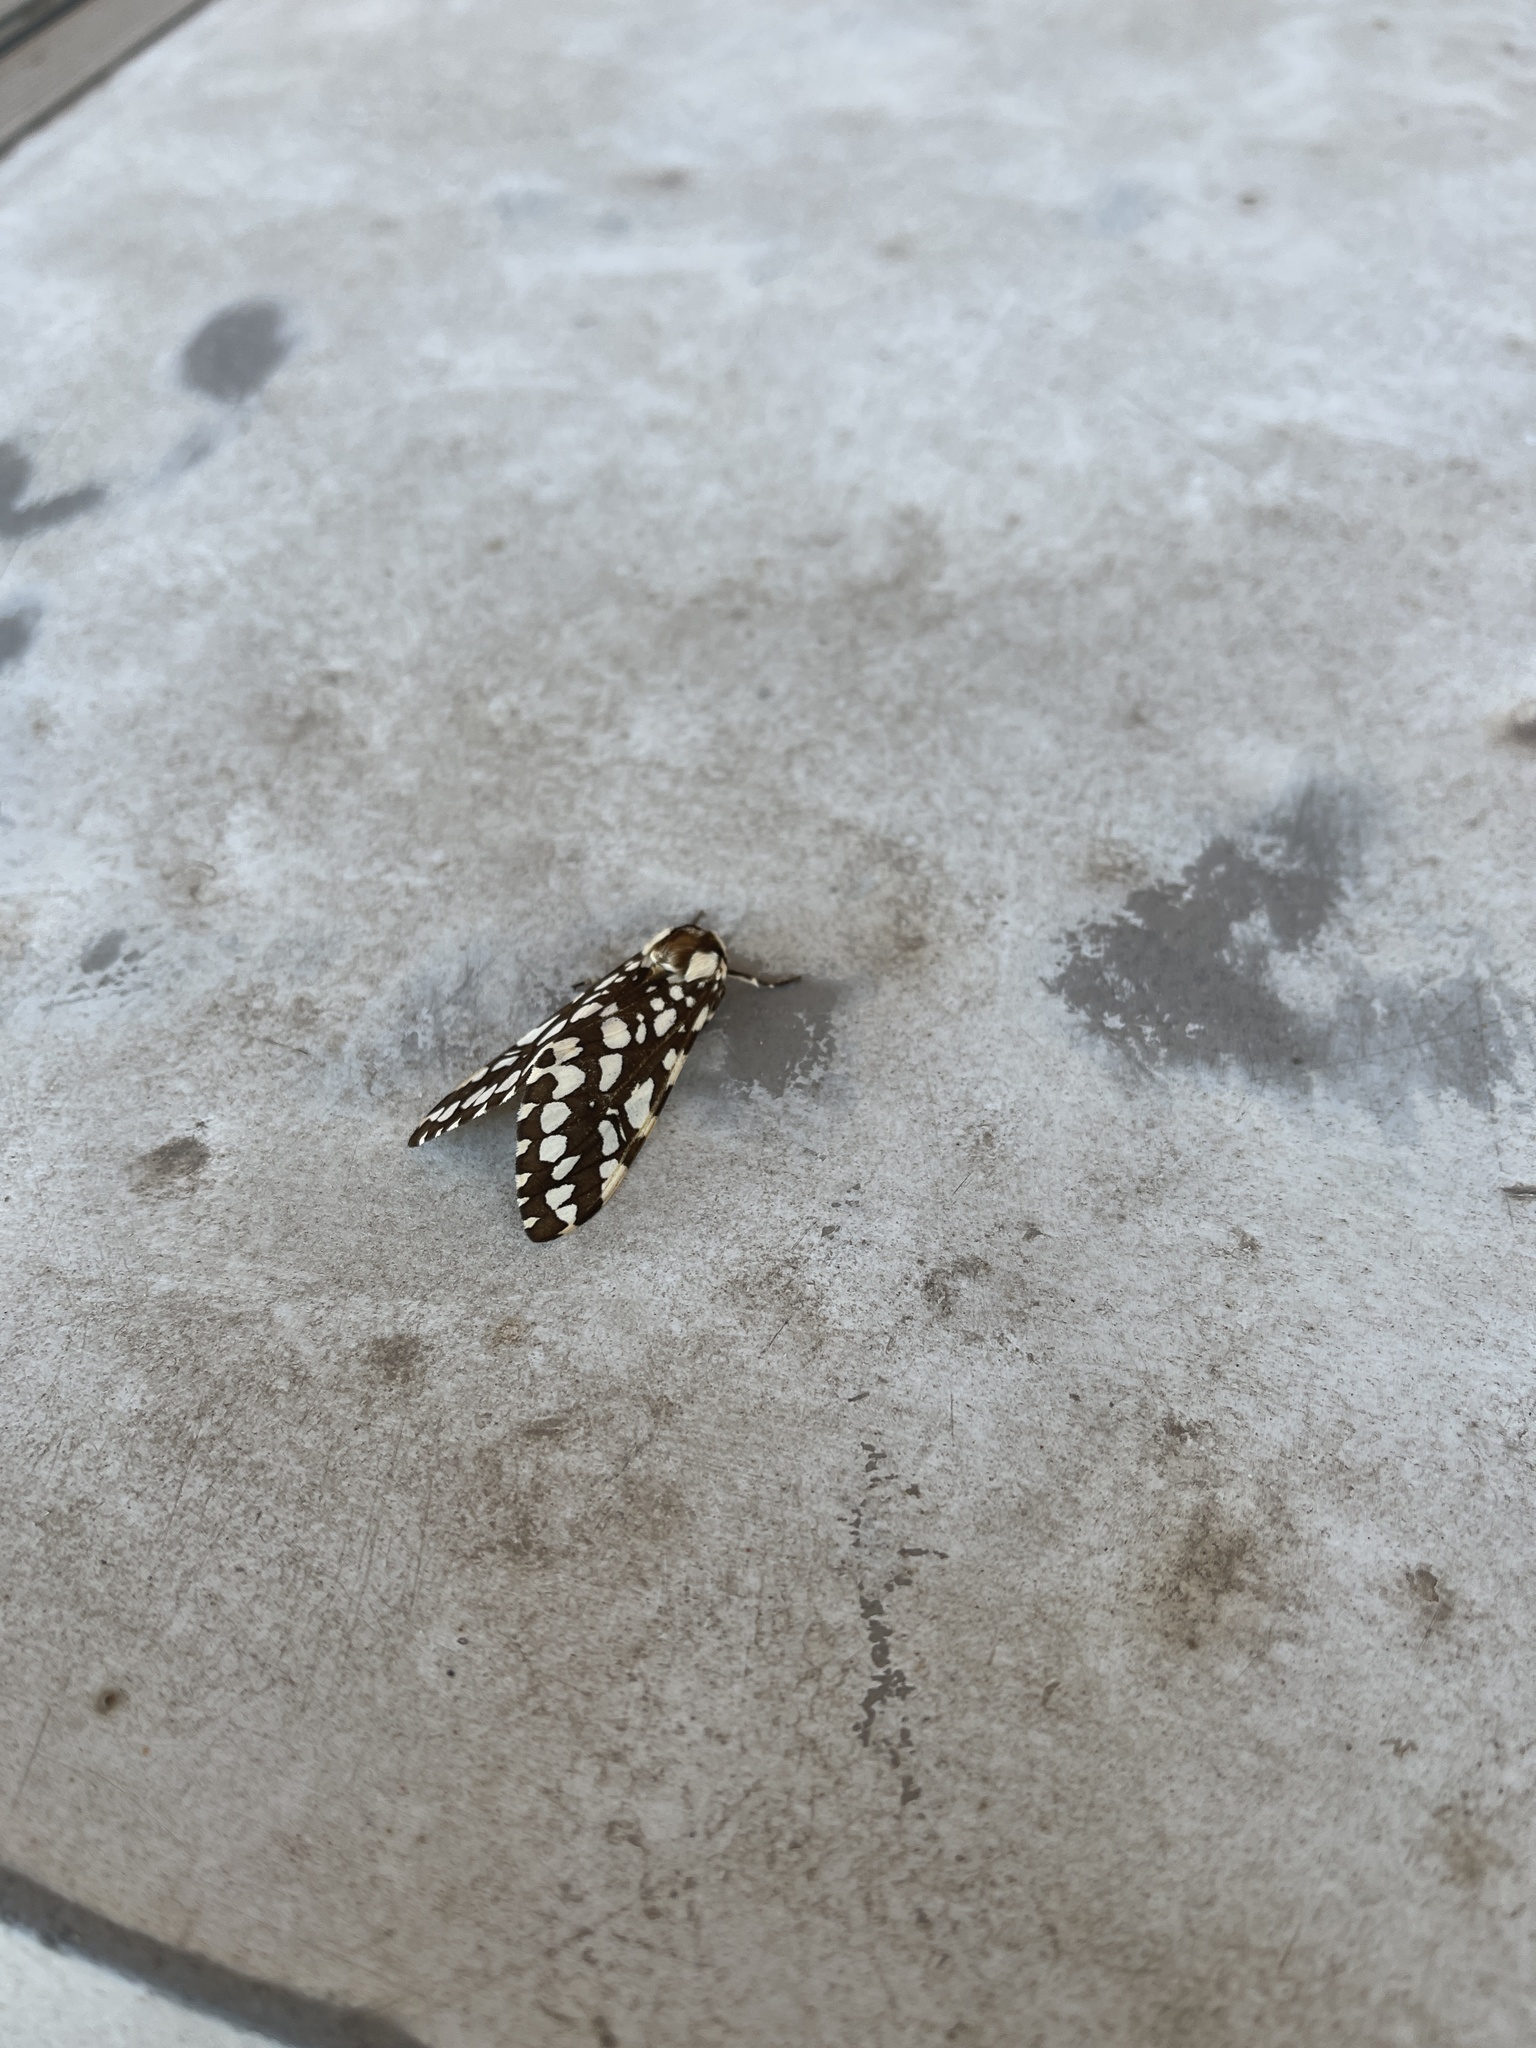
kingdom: Animalia
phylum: Arthropoda
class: Insecta
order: Lepidoptera
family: Erebidae
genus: Lophocampa
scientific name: Lophocampa ingens
